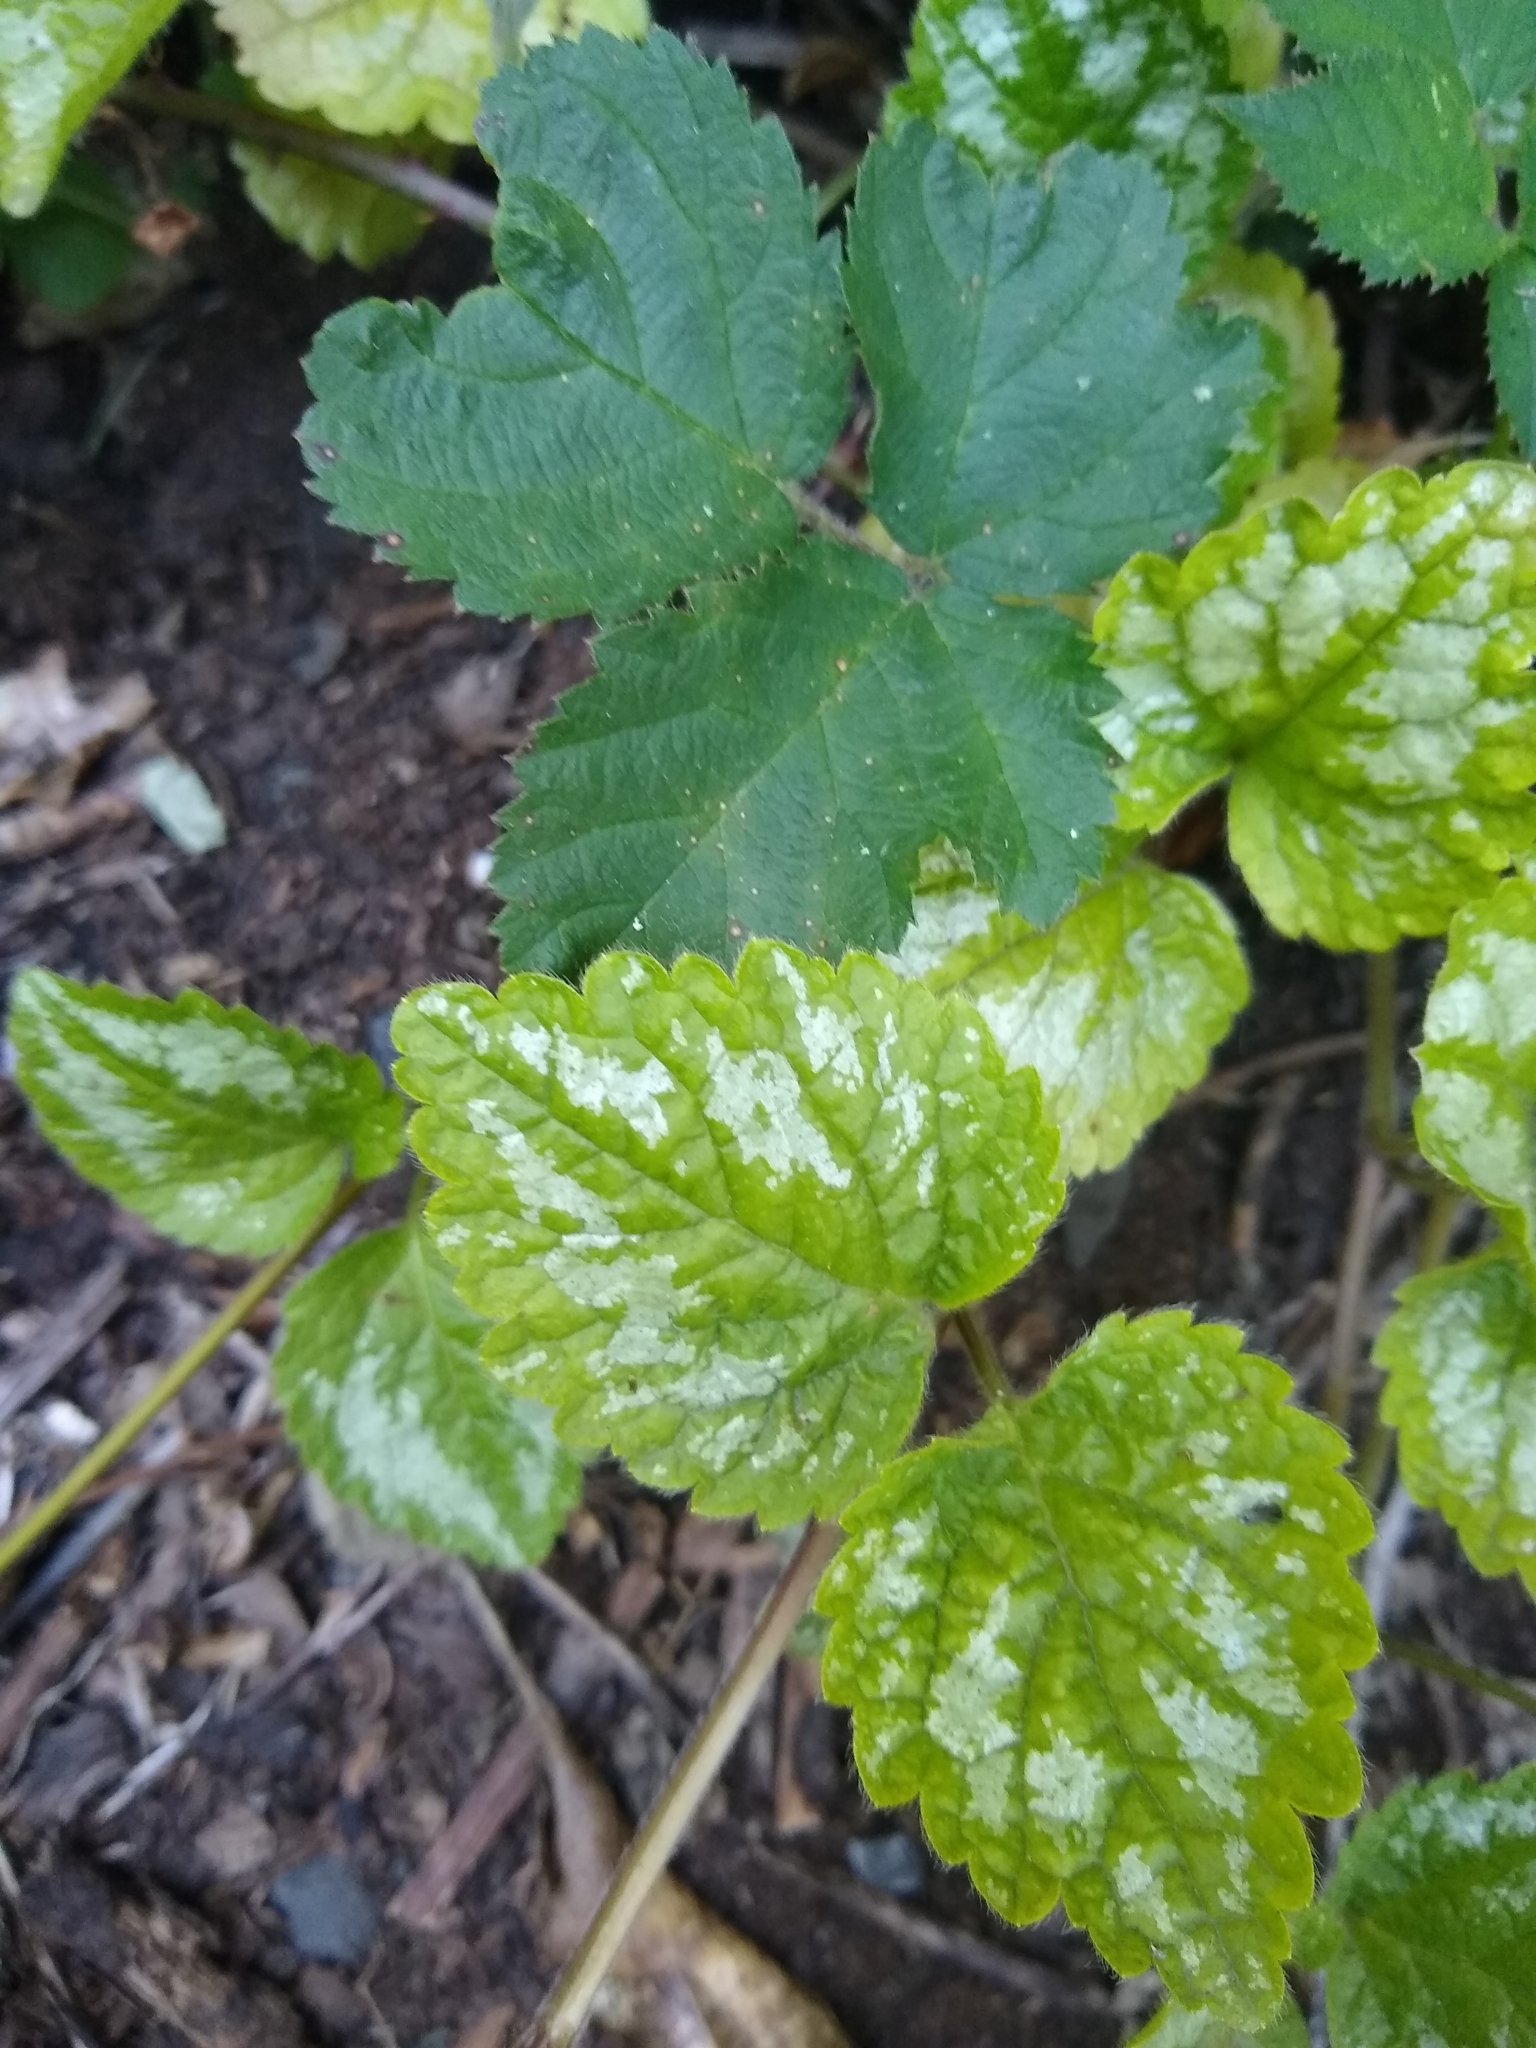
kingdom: Plantae
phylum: Tracheophyta
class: Magnoliopsida
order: Lamiales
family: Lamiaceae
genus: Lamium
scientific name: Lamium galeobdolon
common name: Yellow archangel
